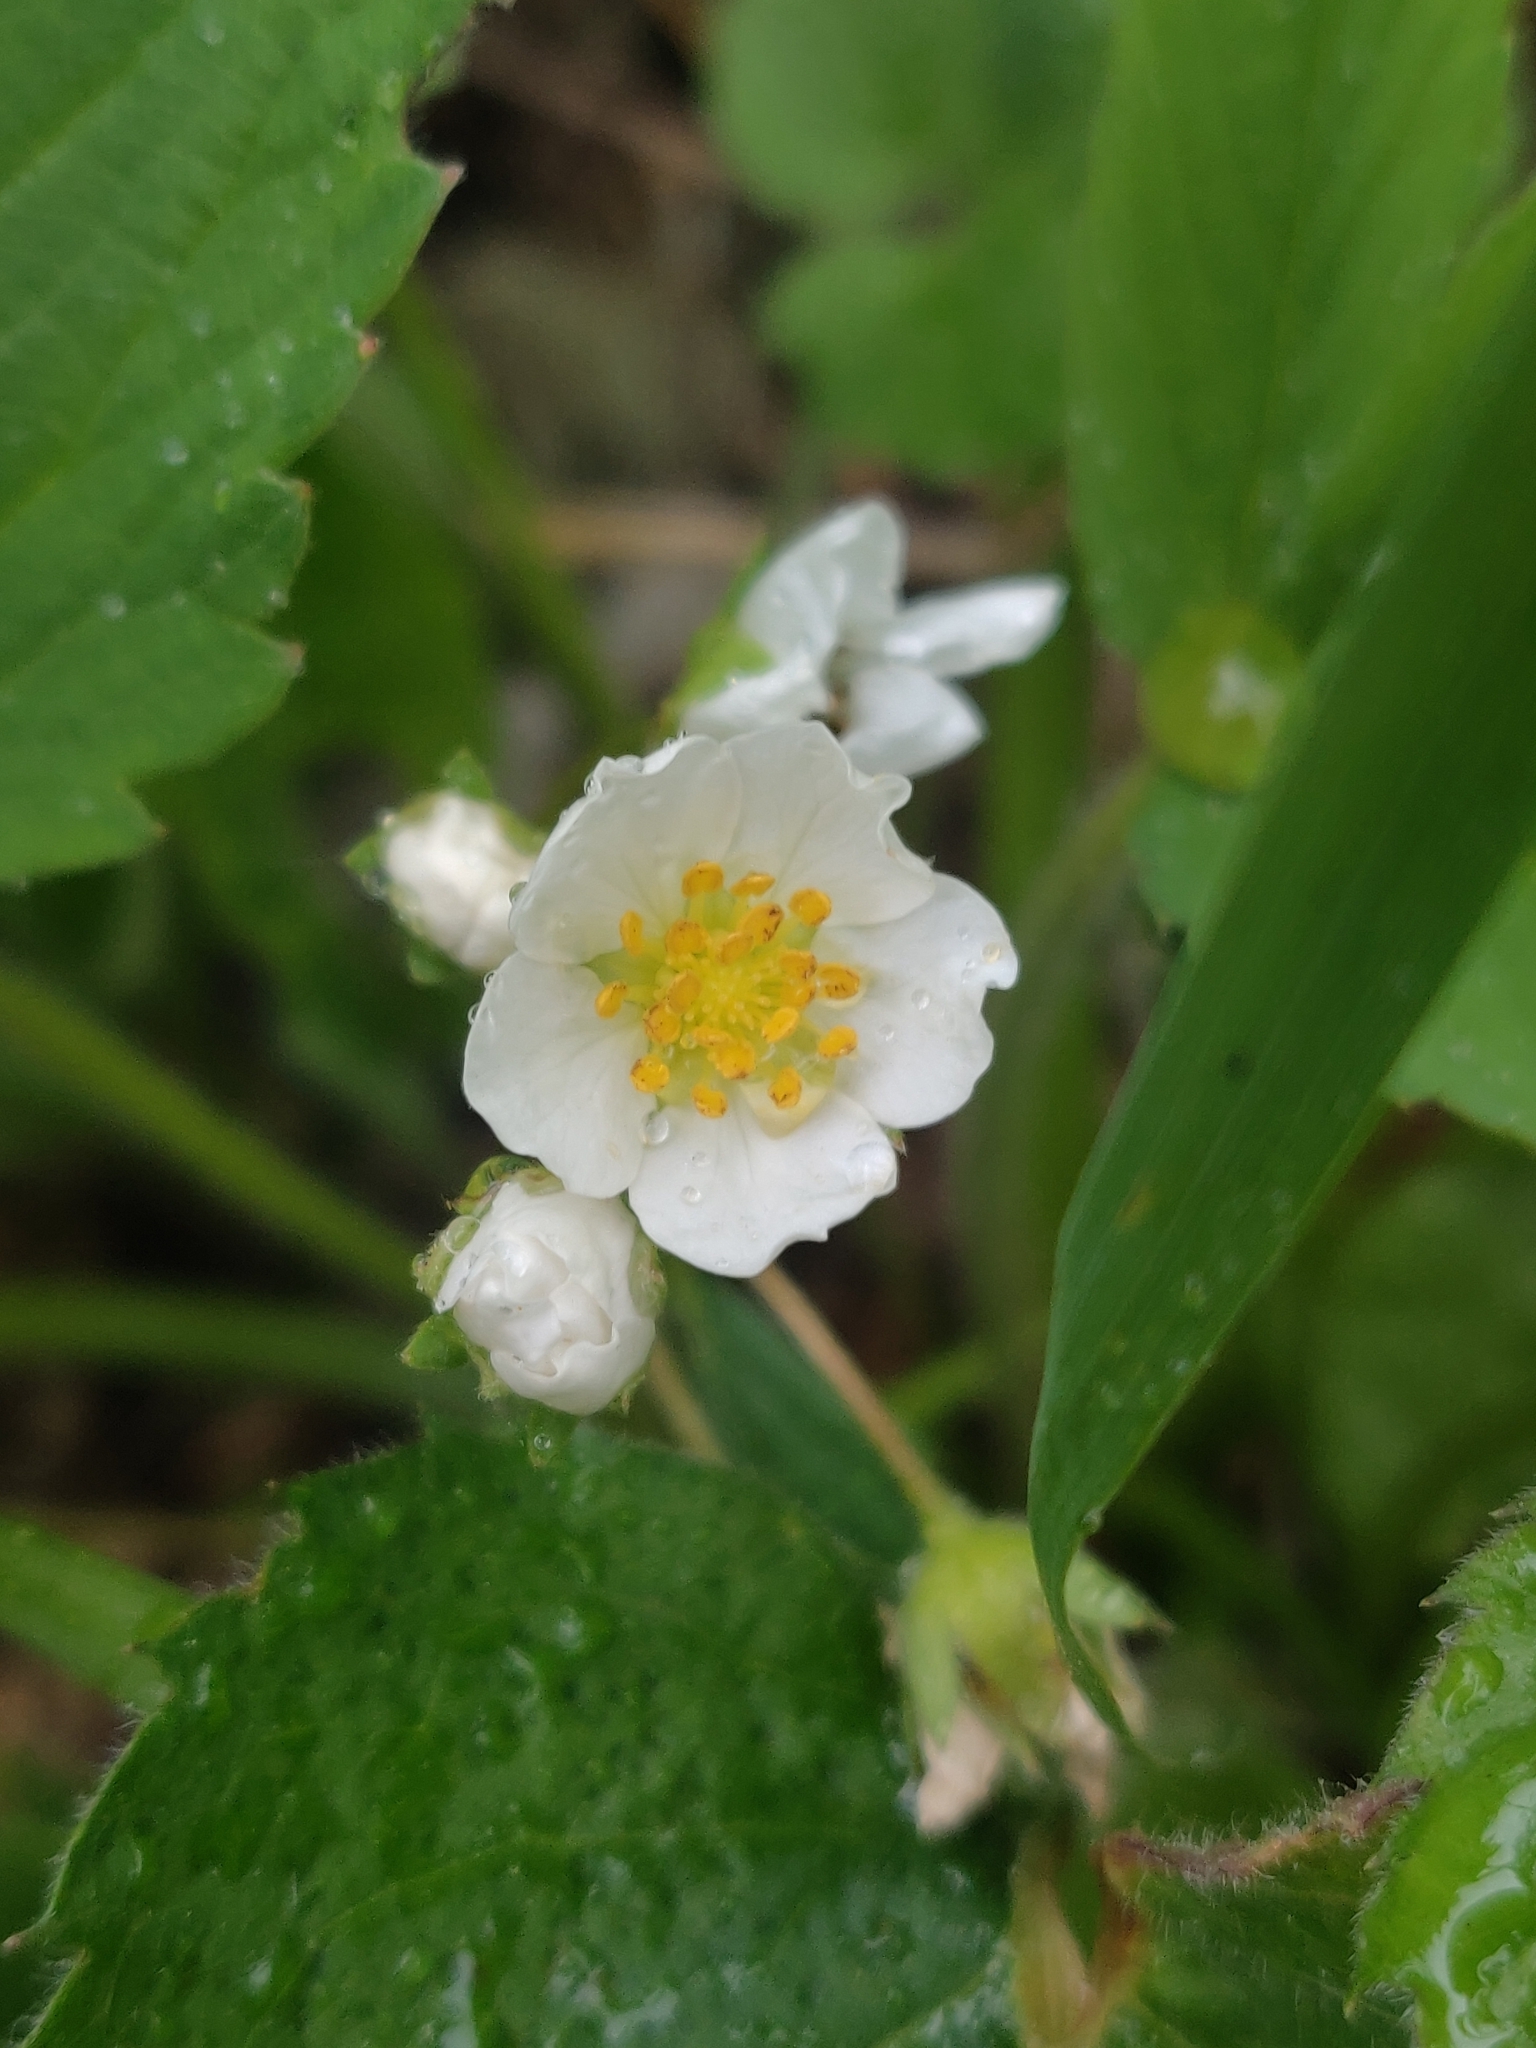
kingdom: Plantae
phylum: Tracheophyta
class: Magnoliopsida
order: Rosales
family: Rosaceae
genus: Fragaria
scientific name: Fragaria vesca
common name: Wild strawberry
